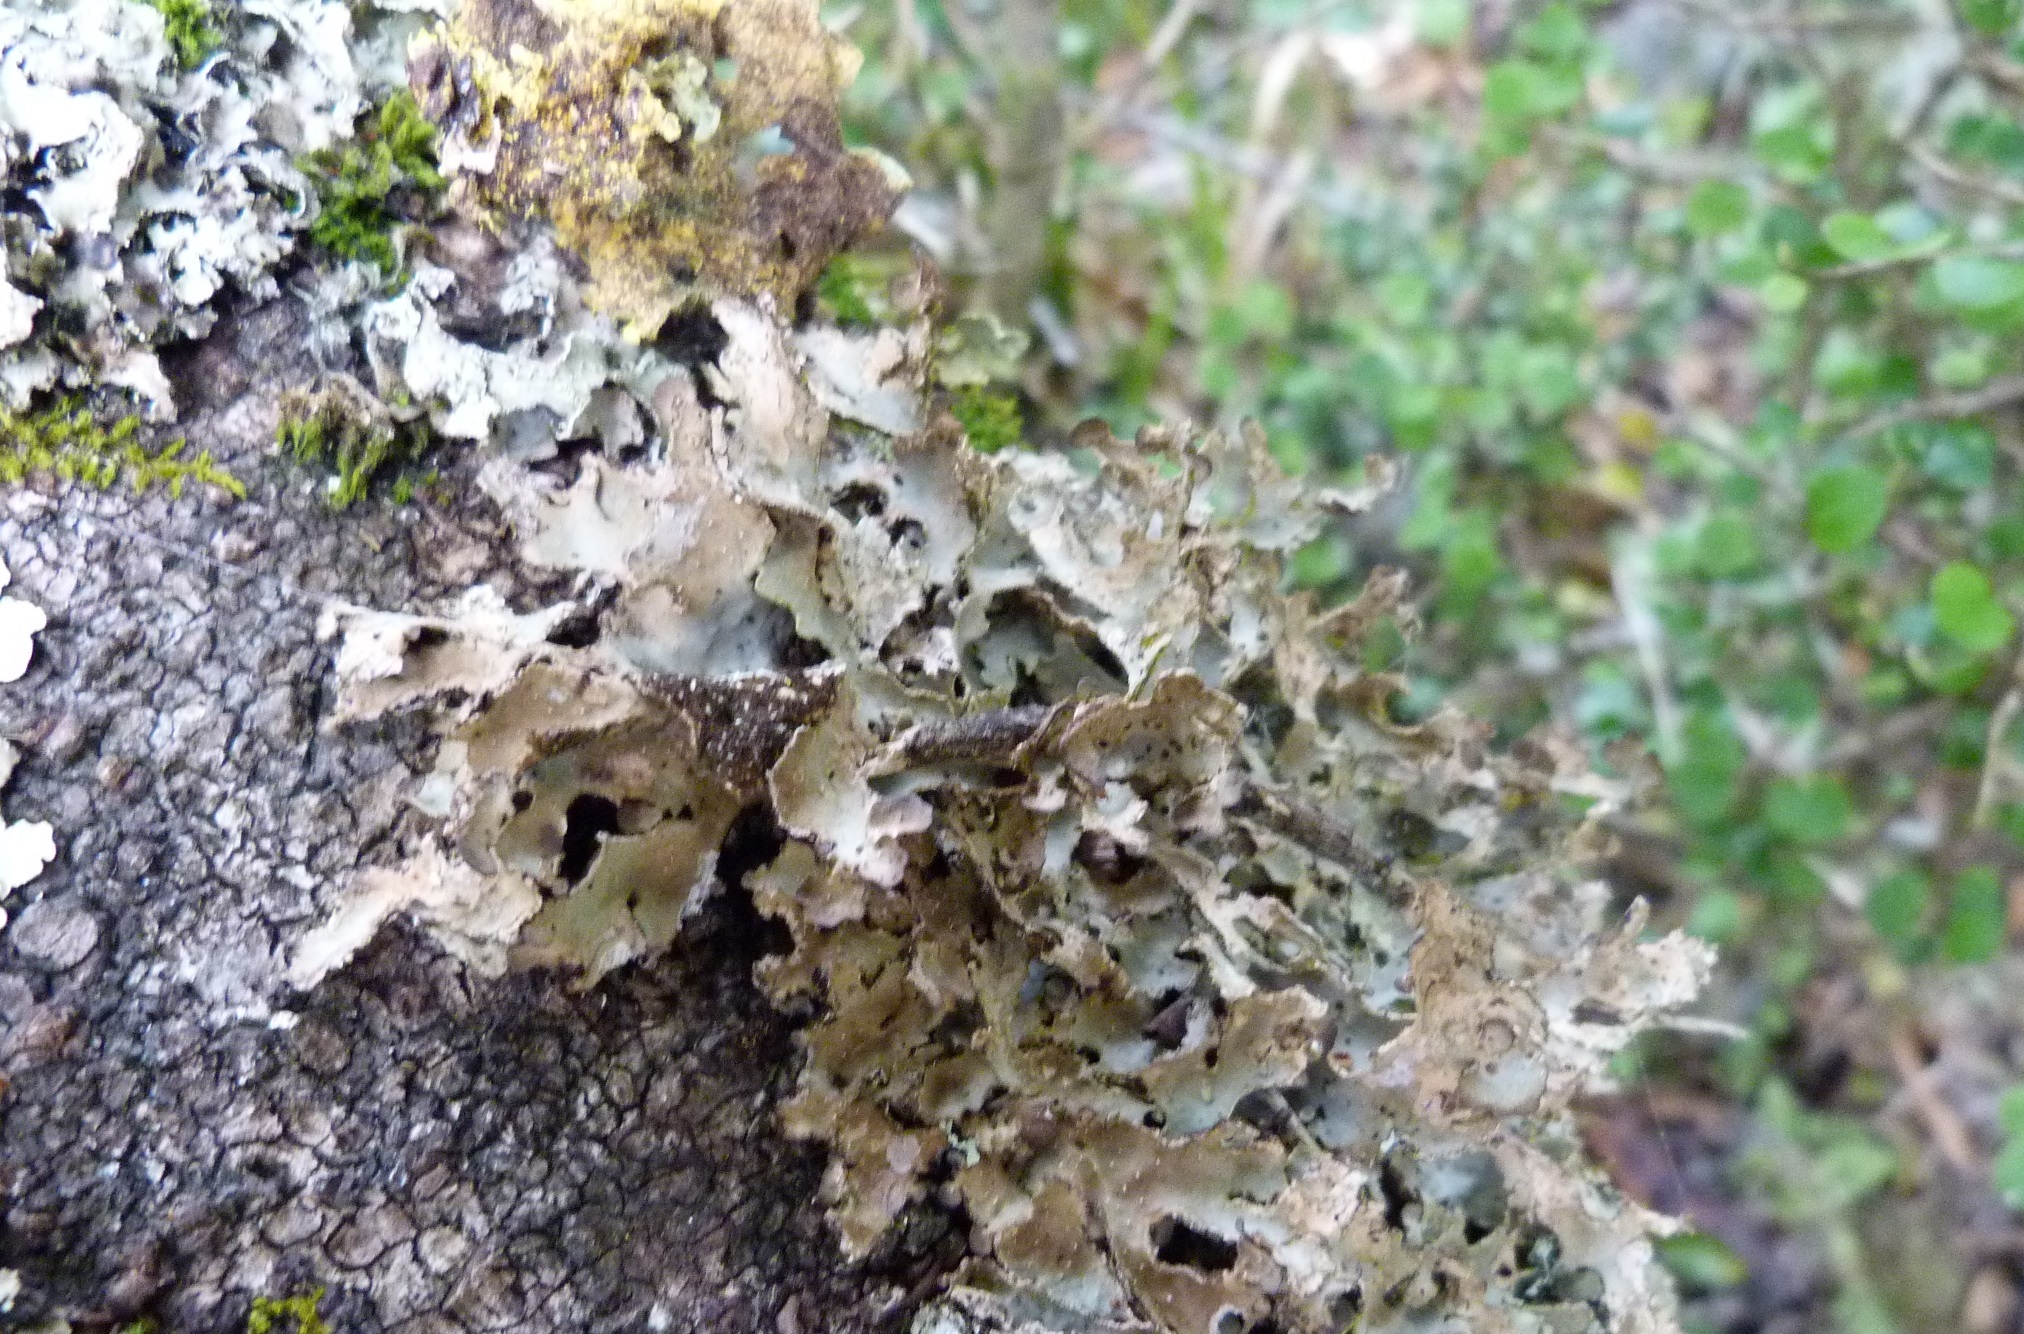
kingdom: Fungi
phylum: Ascomycota
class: Lecanoromycetes
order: Peltigerales
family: Lobariaceae
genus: Pseudocyphellaria
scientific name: Pseudocyphellaria lividofusca
